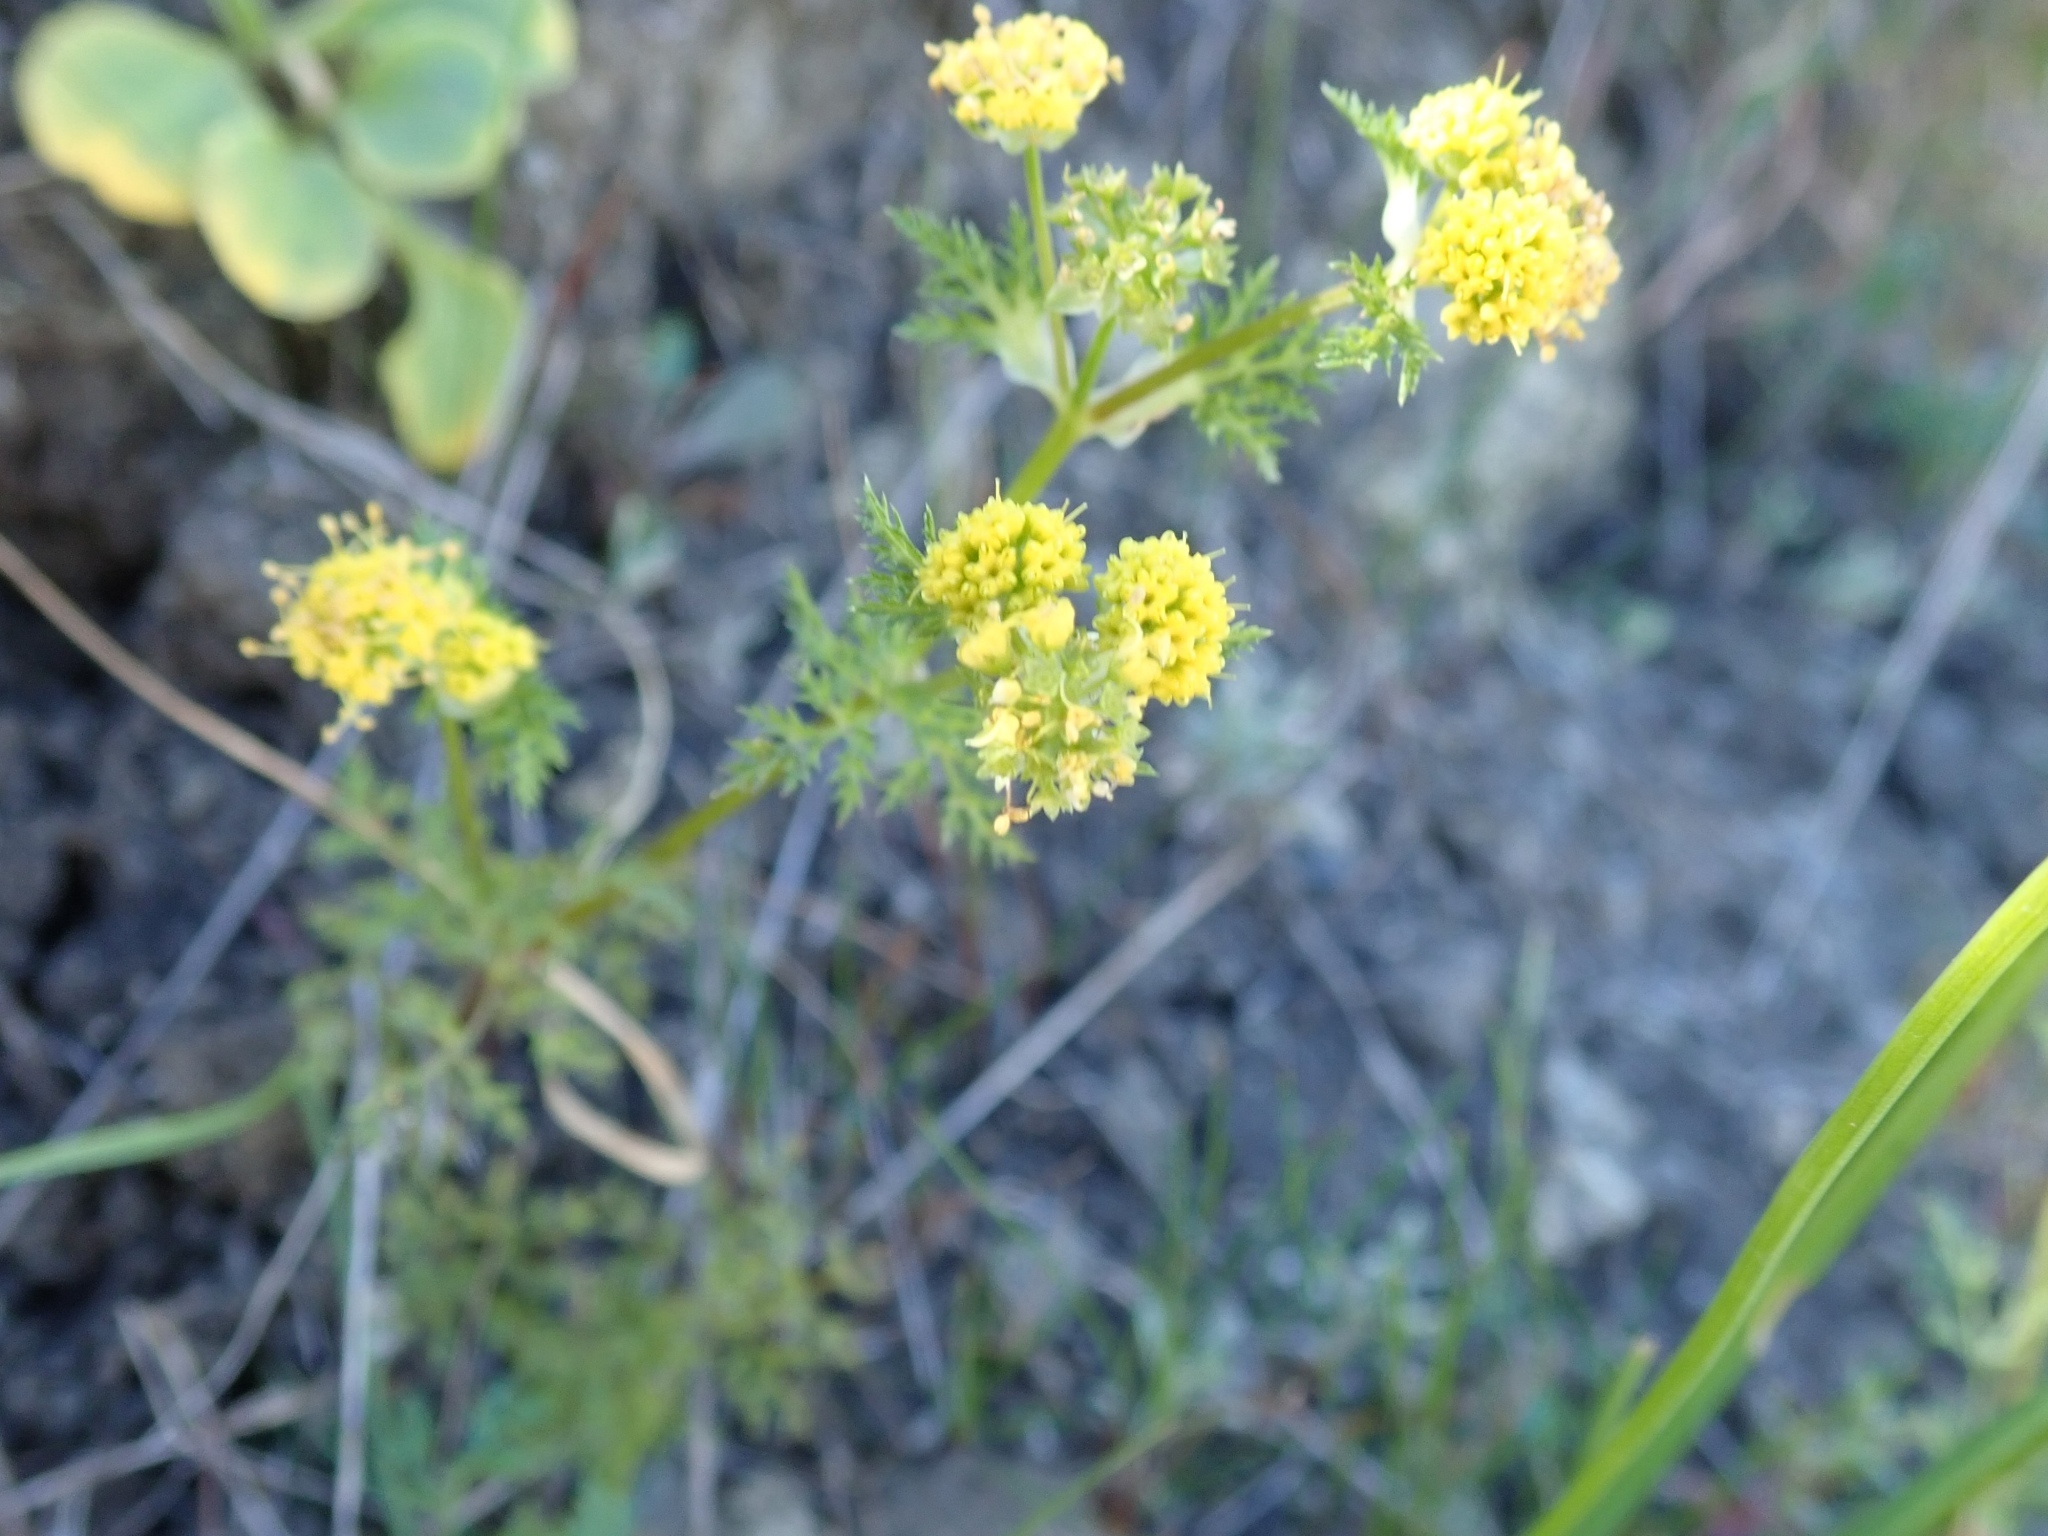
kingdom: Plantae
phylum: Tracheophyta
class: Magnoliopsida
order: Apiales
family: Apiaceae
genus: Sanicula
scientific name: Sanicula tuberosa
